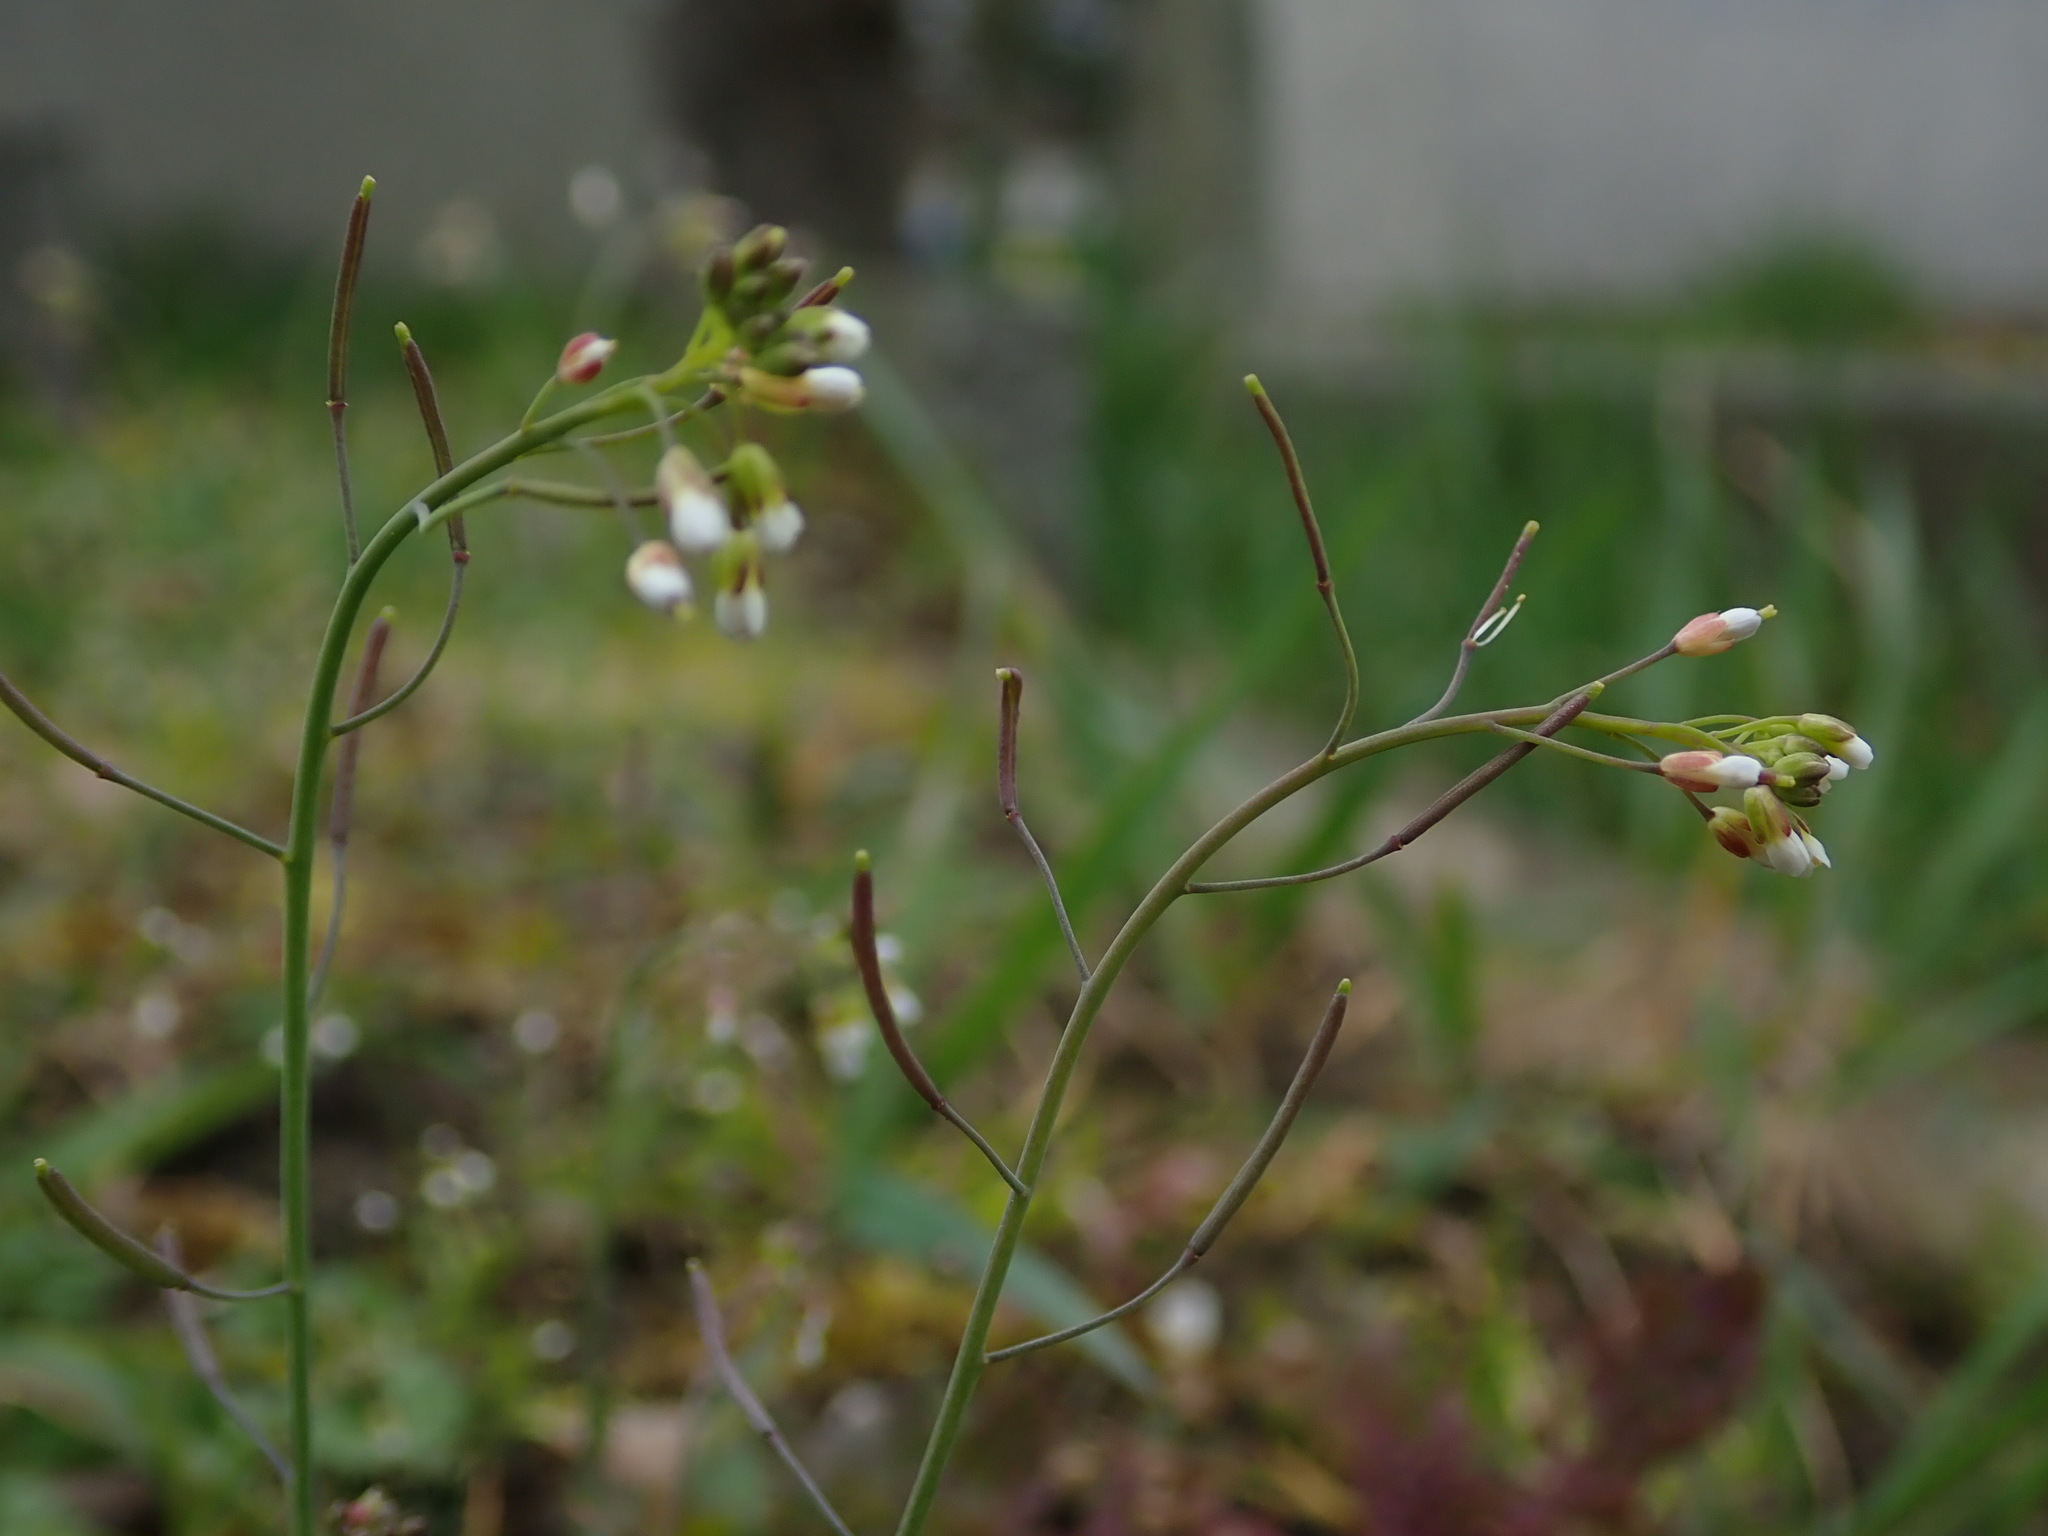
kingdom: Plantae
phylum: Tracheophyta
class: Magnoliopsida
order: Brassicales
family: Brassicaceae
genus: Arabidopsis
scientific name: Arabidopsis thaliana
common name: Thale cress
